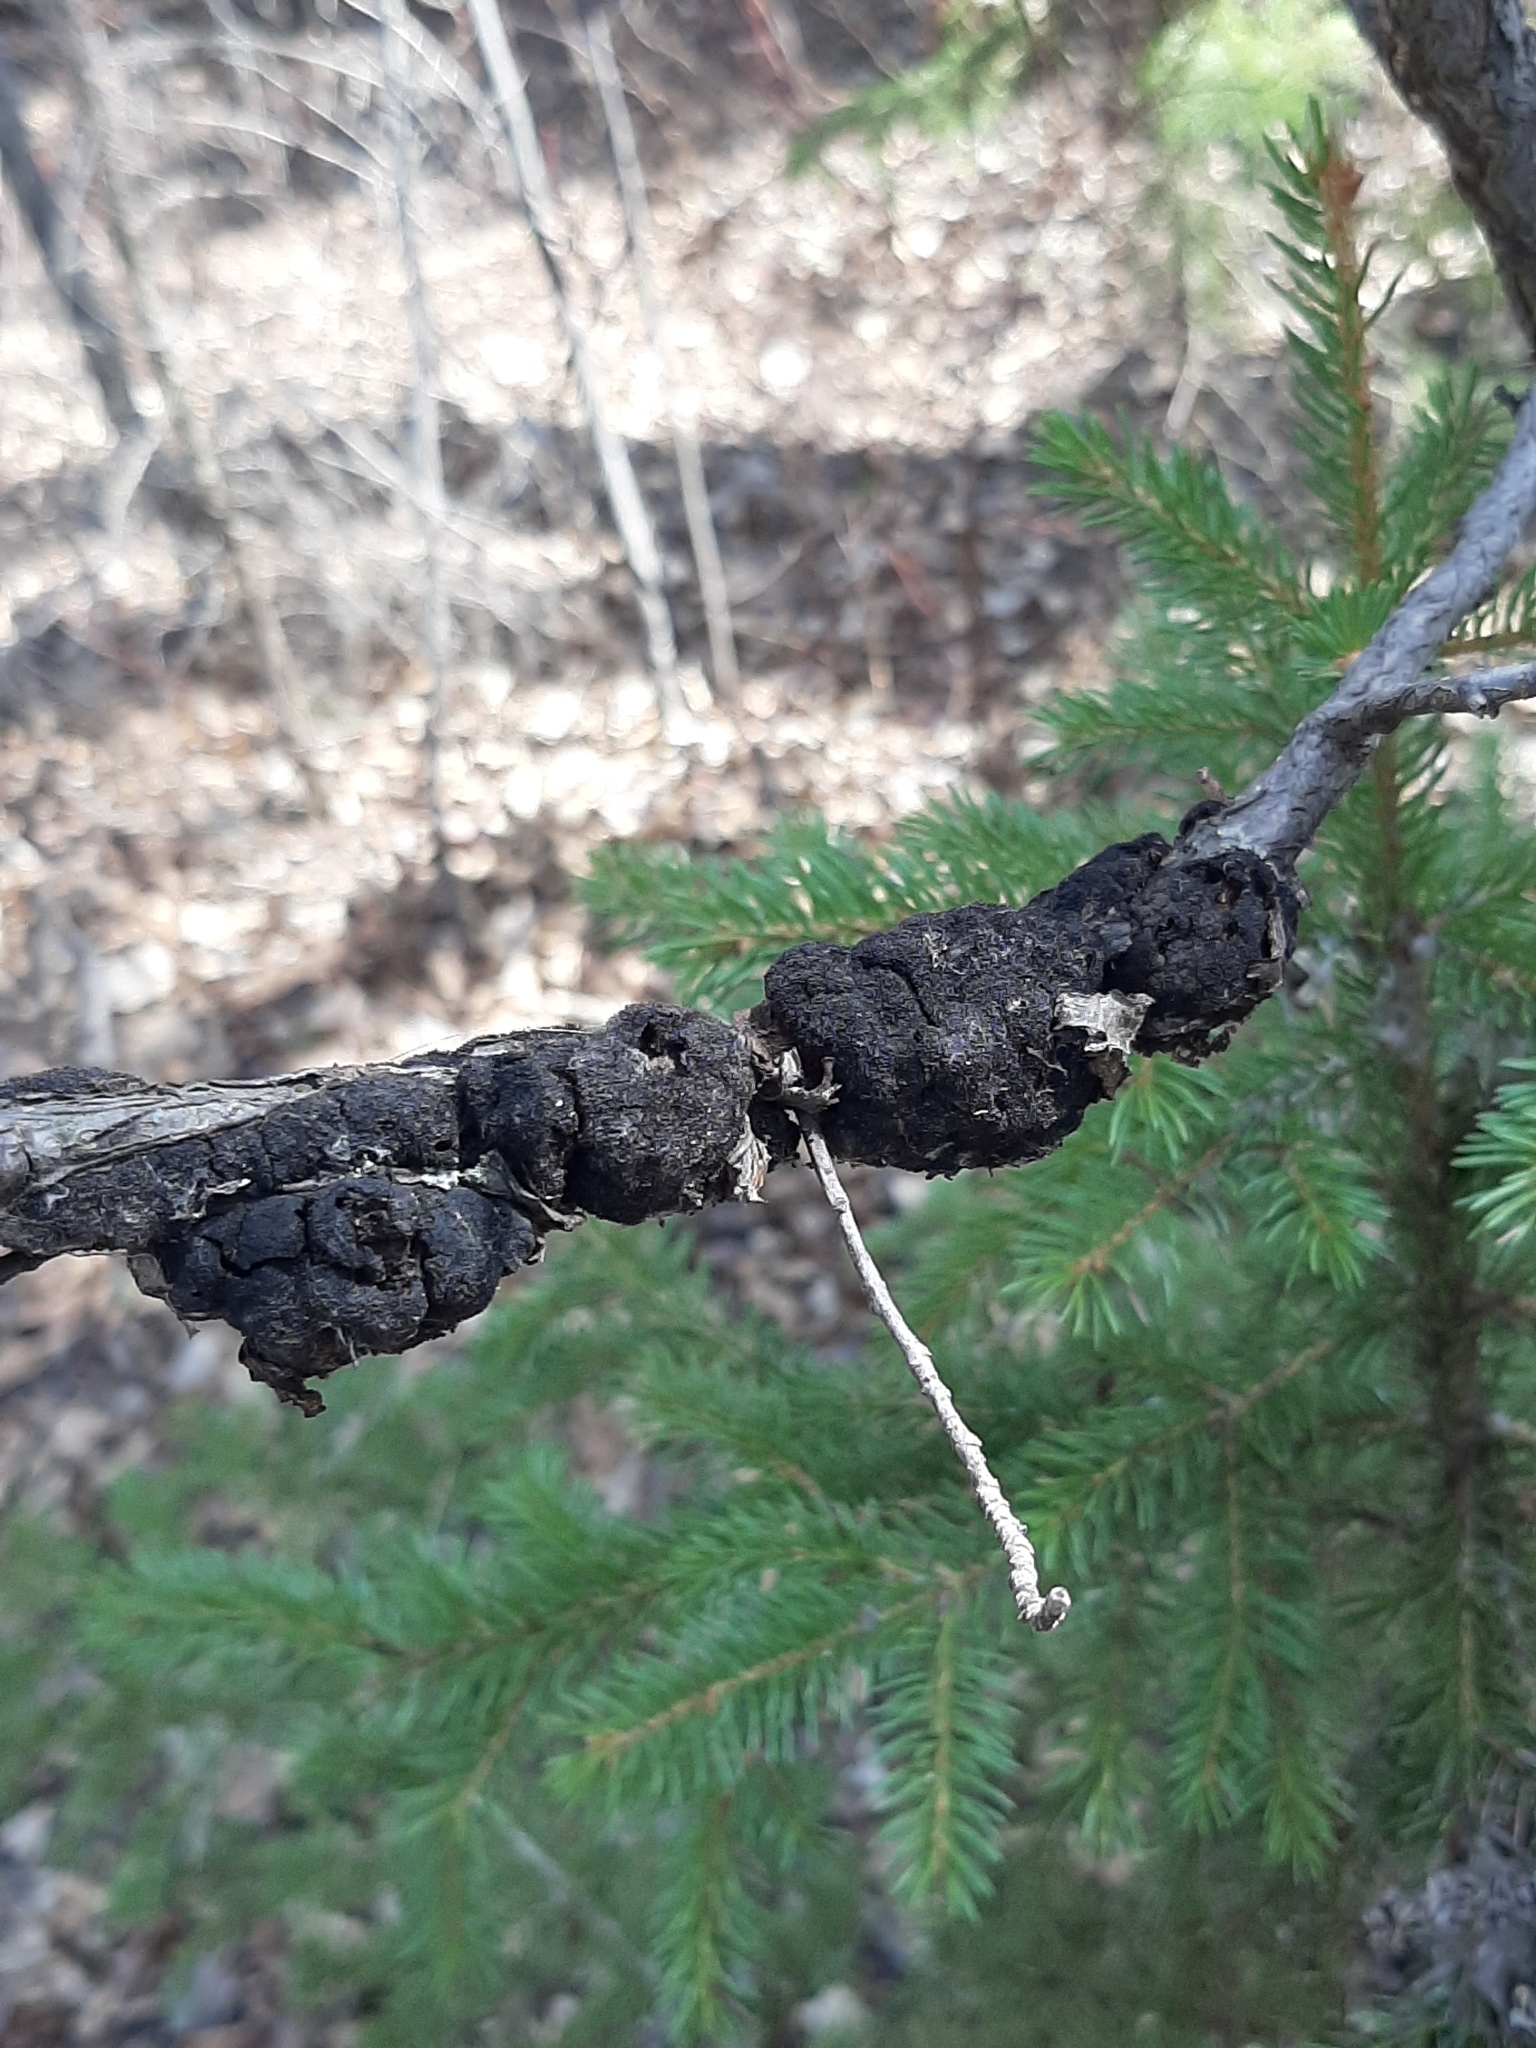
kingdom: Fungi
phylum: Ascomycota
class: Dothideomycetes
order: Venturiales
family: Venturiaceae
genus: Apiosporina
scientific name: Apiosporina morbosa
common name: Black knot
